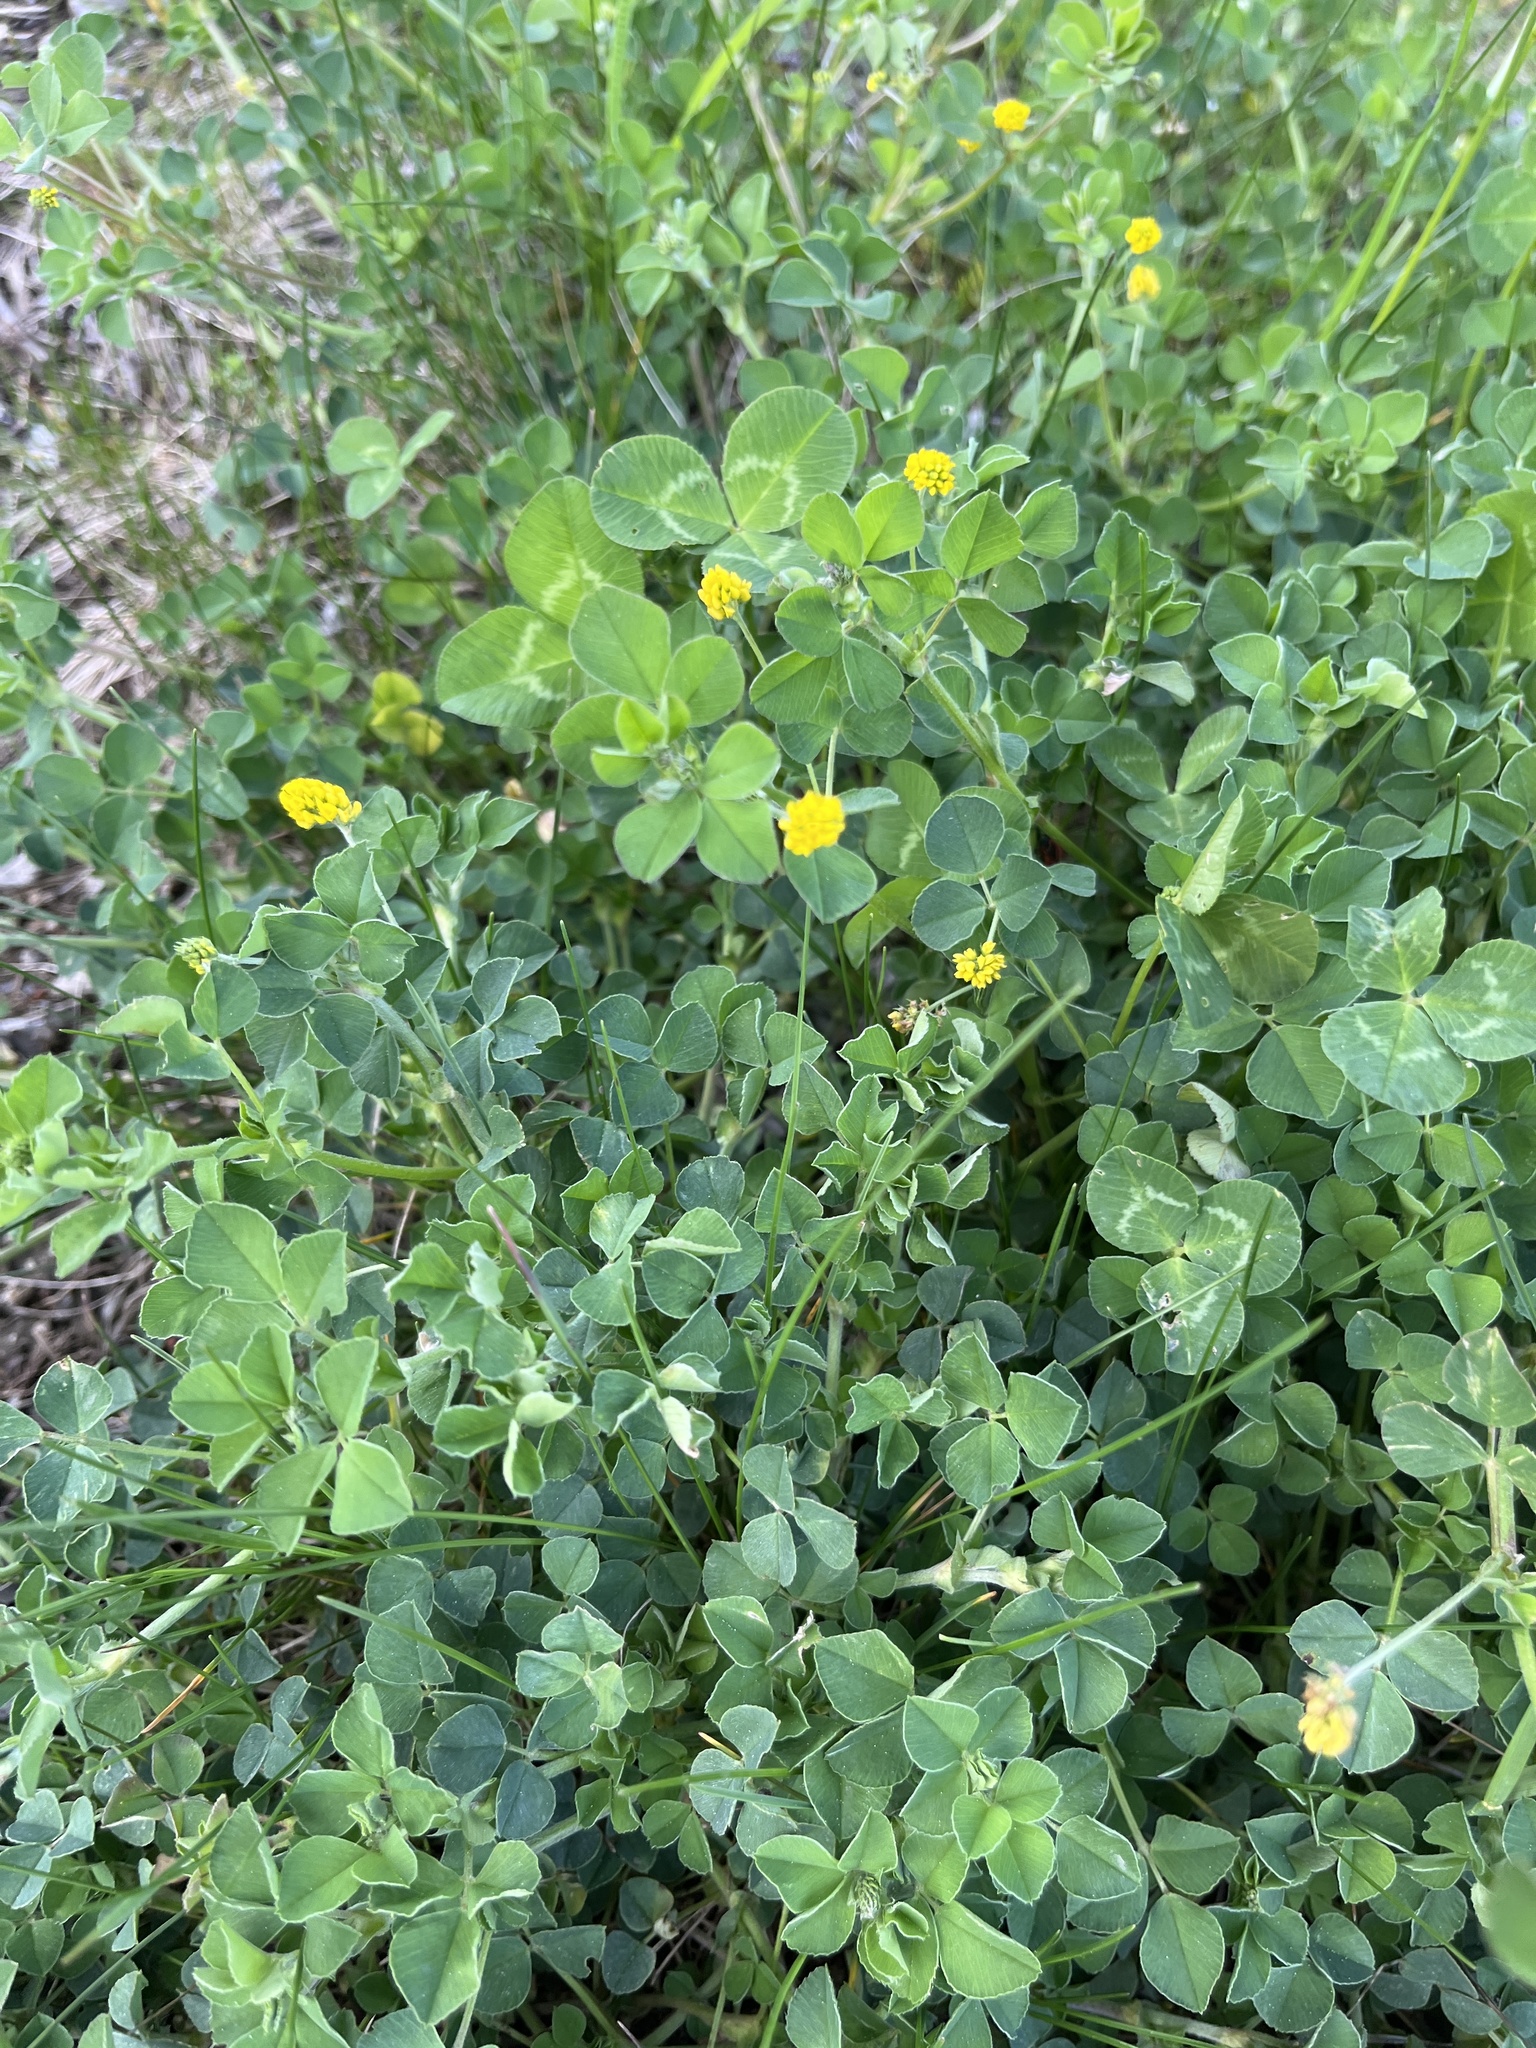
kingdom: Plantae
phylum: Tracheophyta
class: Magnoliopsida
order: Fabales
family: Fabaceae
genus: Medicago
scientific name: Medicago lupulina
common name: Black medick
